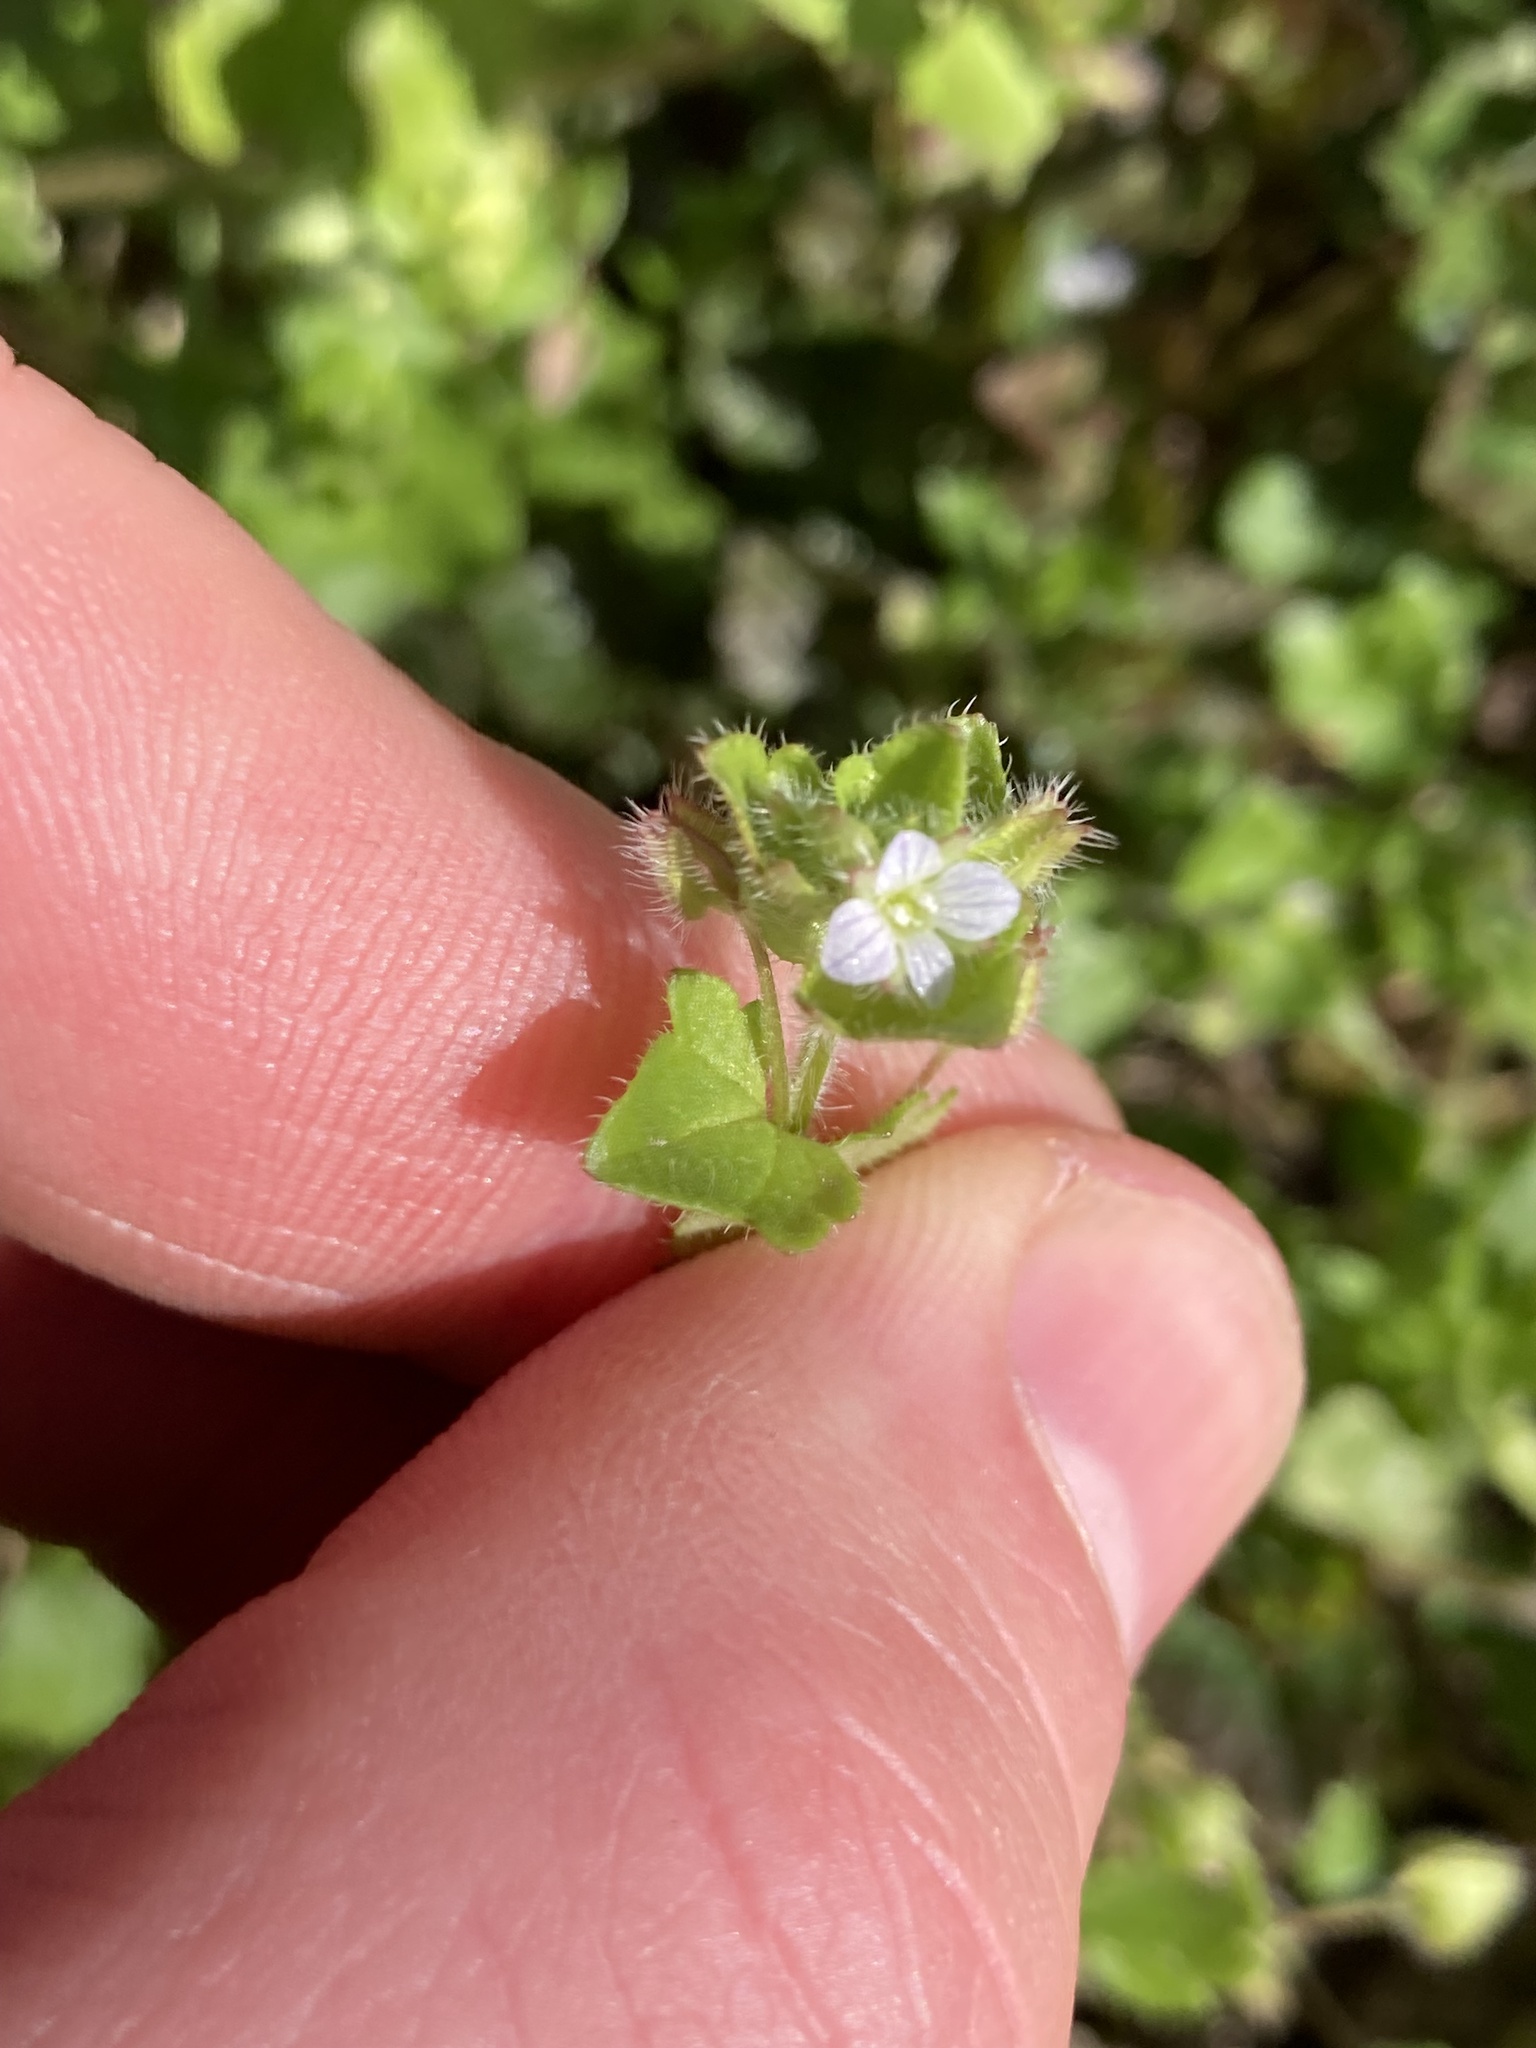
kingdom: Plantae
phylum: Tracheophyta
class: Magnoliopsida
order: Lamiales
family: Plantaginaceae
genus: Veronica
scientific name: Veronica sublobata
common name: False ivy-leaved speedwell
